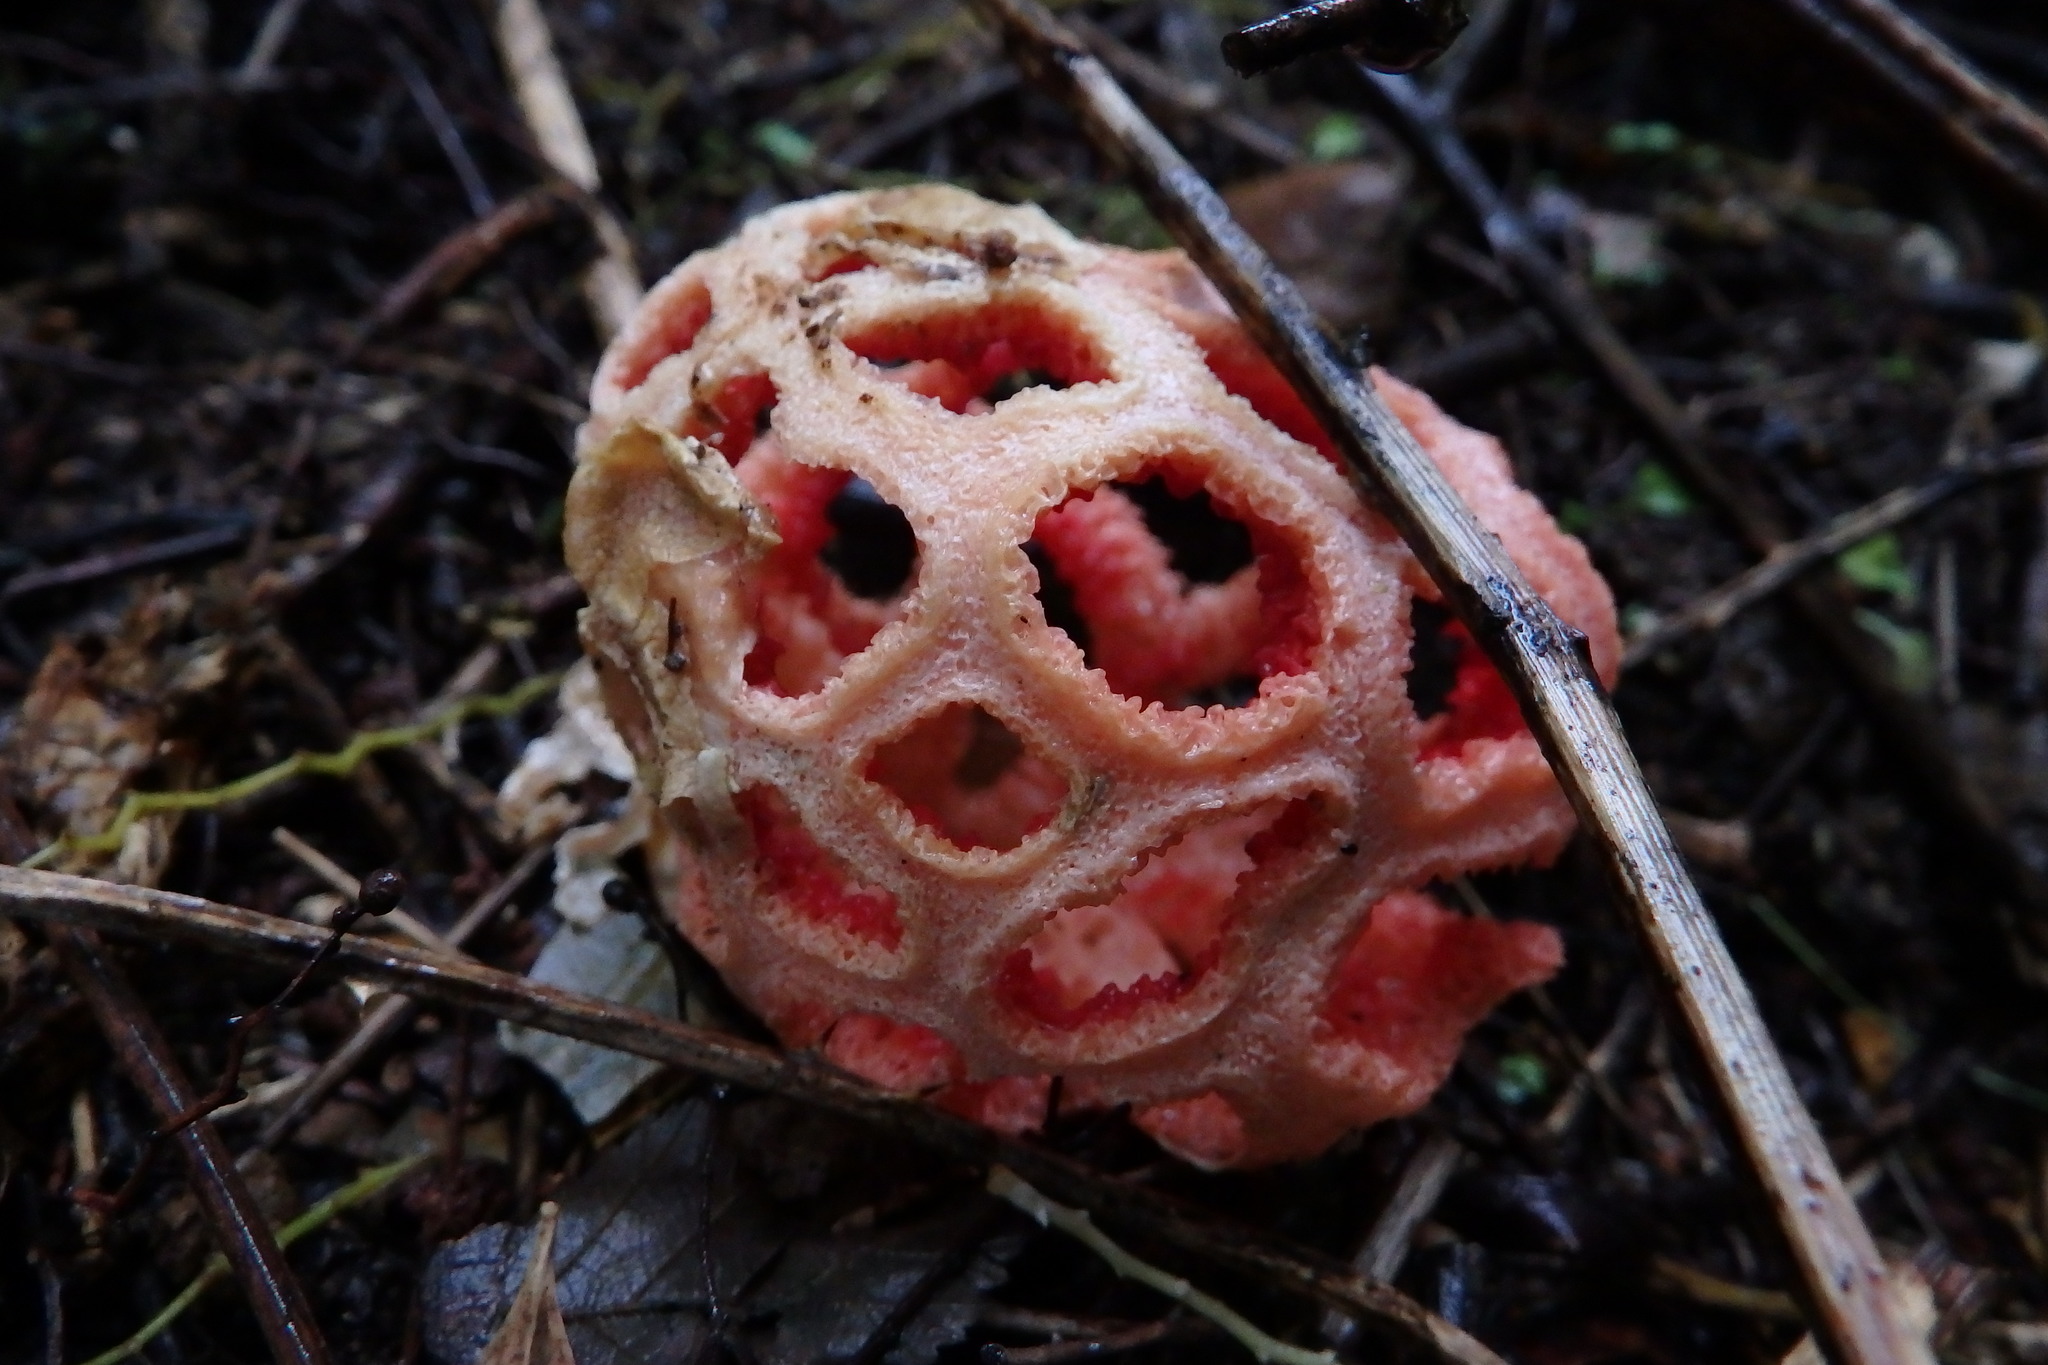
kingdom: Fungi
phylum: Basidiomycota
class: Agaricomycetes
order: Phallales
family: Phallaceae
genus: Clathrus
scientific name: Clathrus ruber
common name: Red cage
